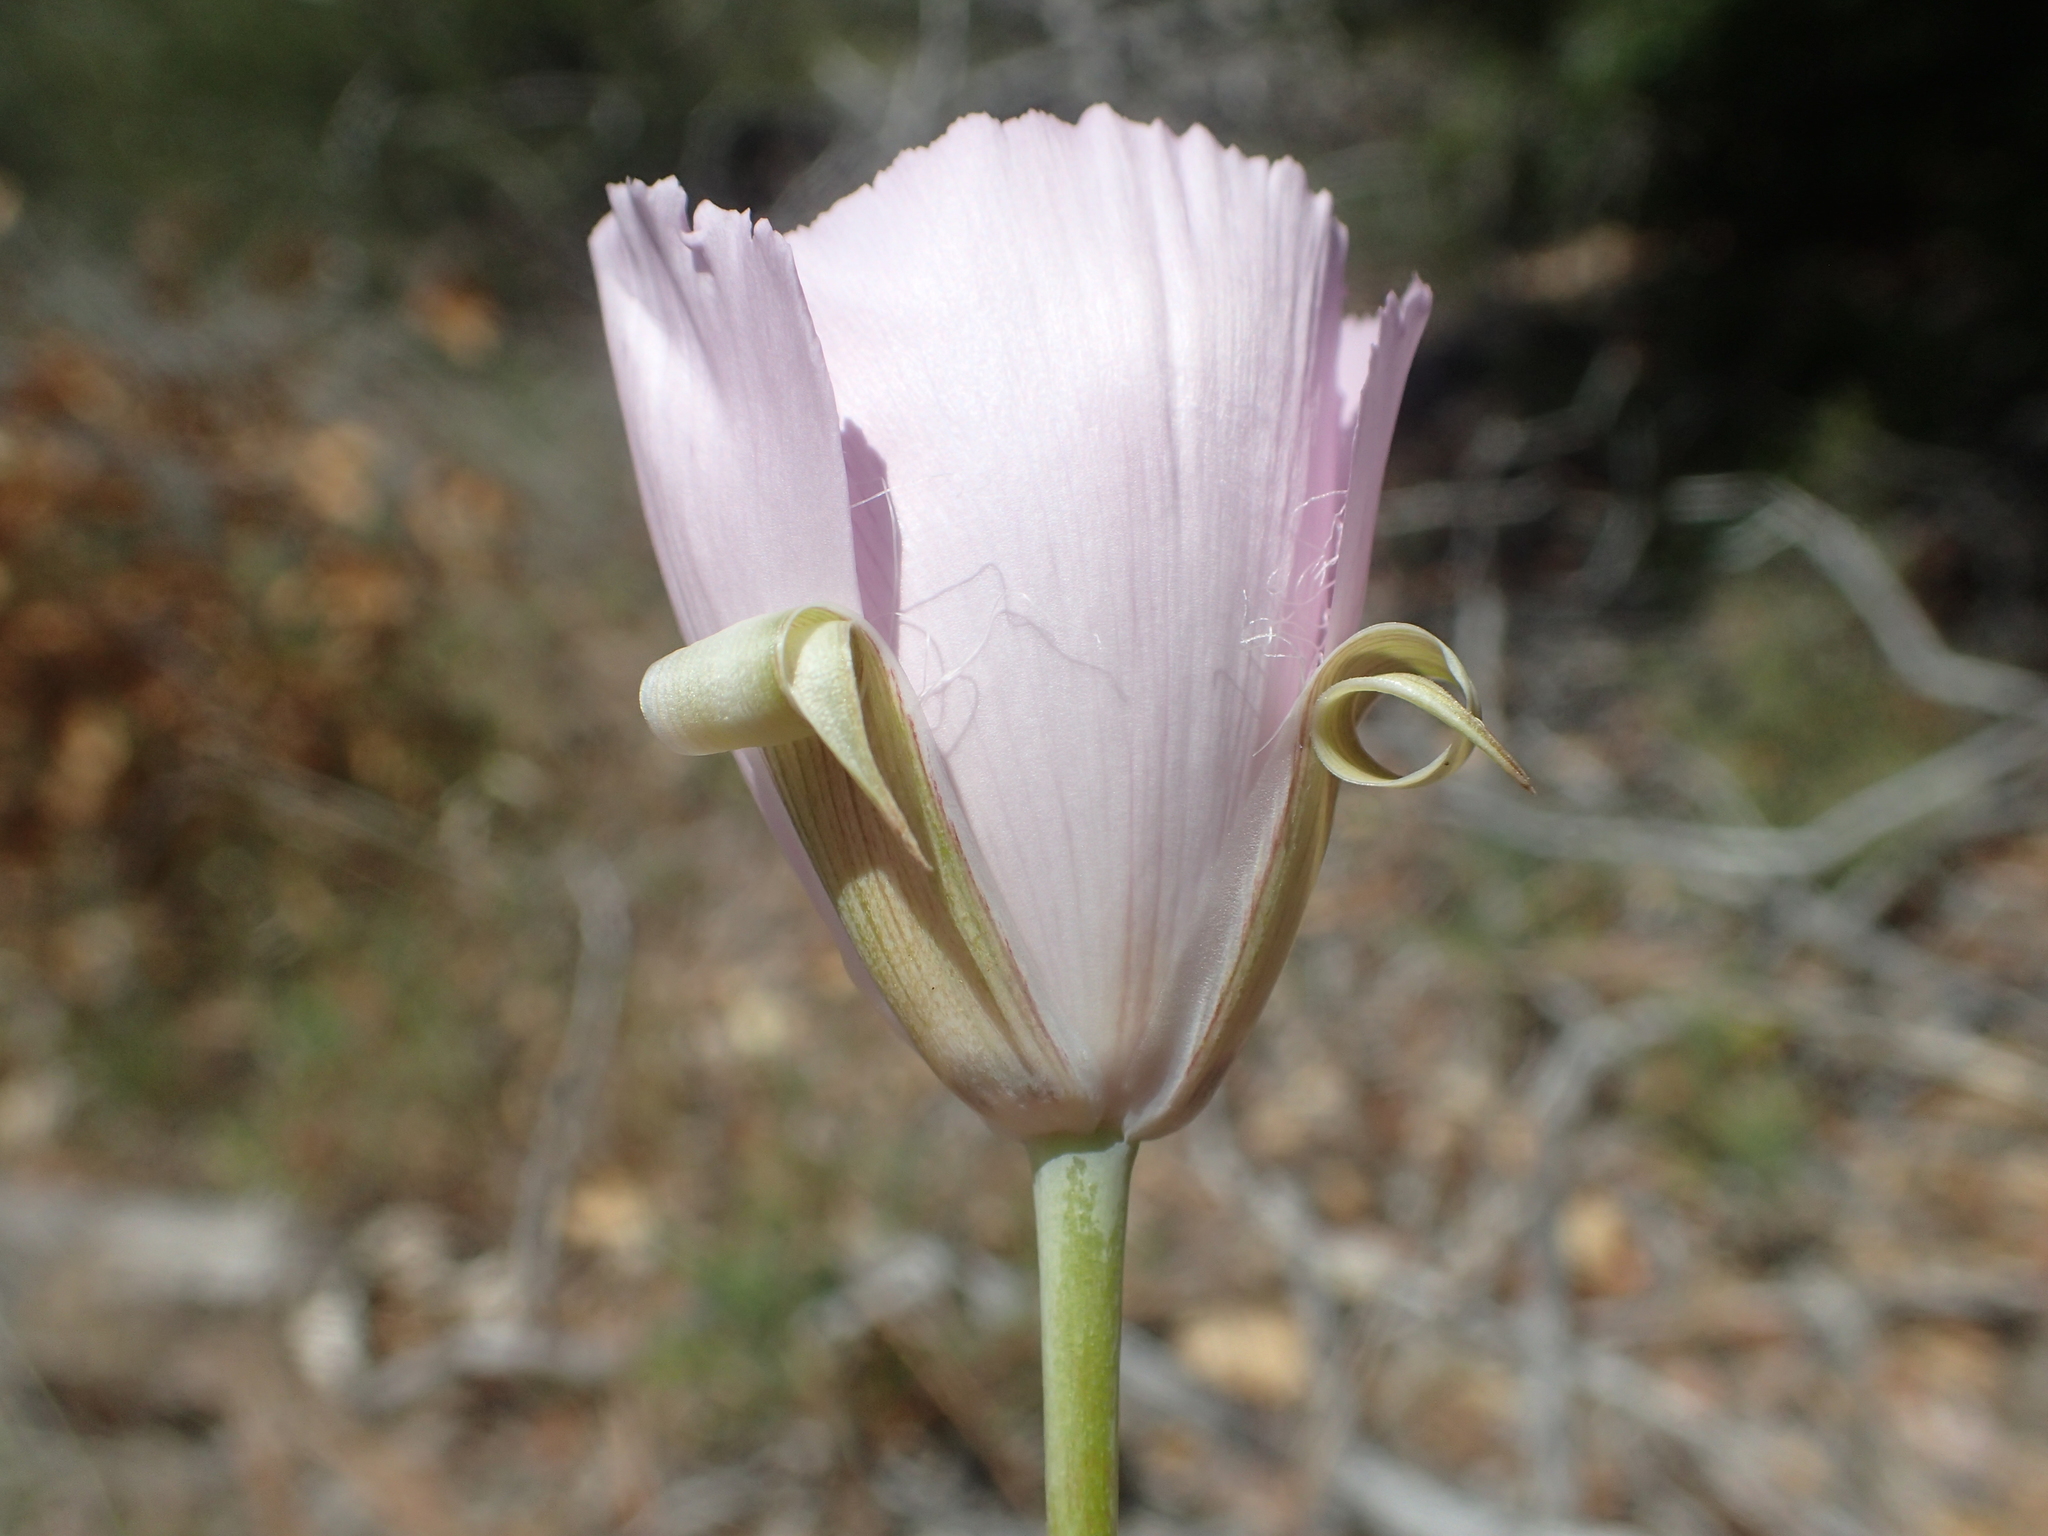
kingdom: Plantae
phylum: Tracheophyta
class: Liliopsida
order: Liliales
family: Liliaceae
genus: Calochortus
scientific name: Calochortus splendens
